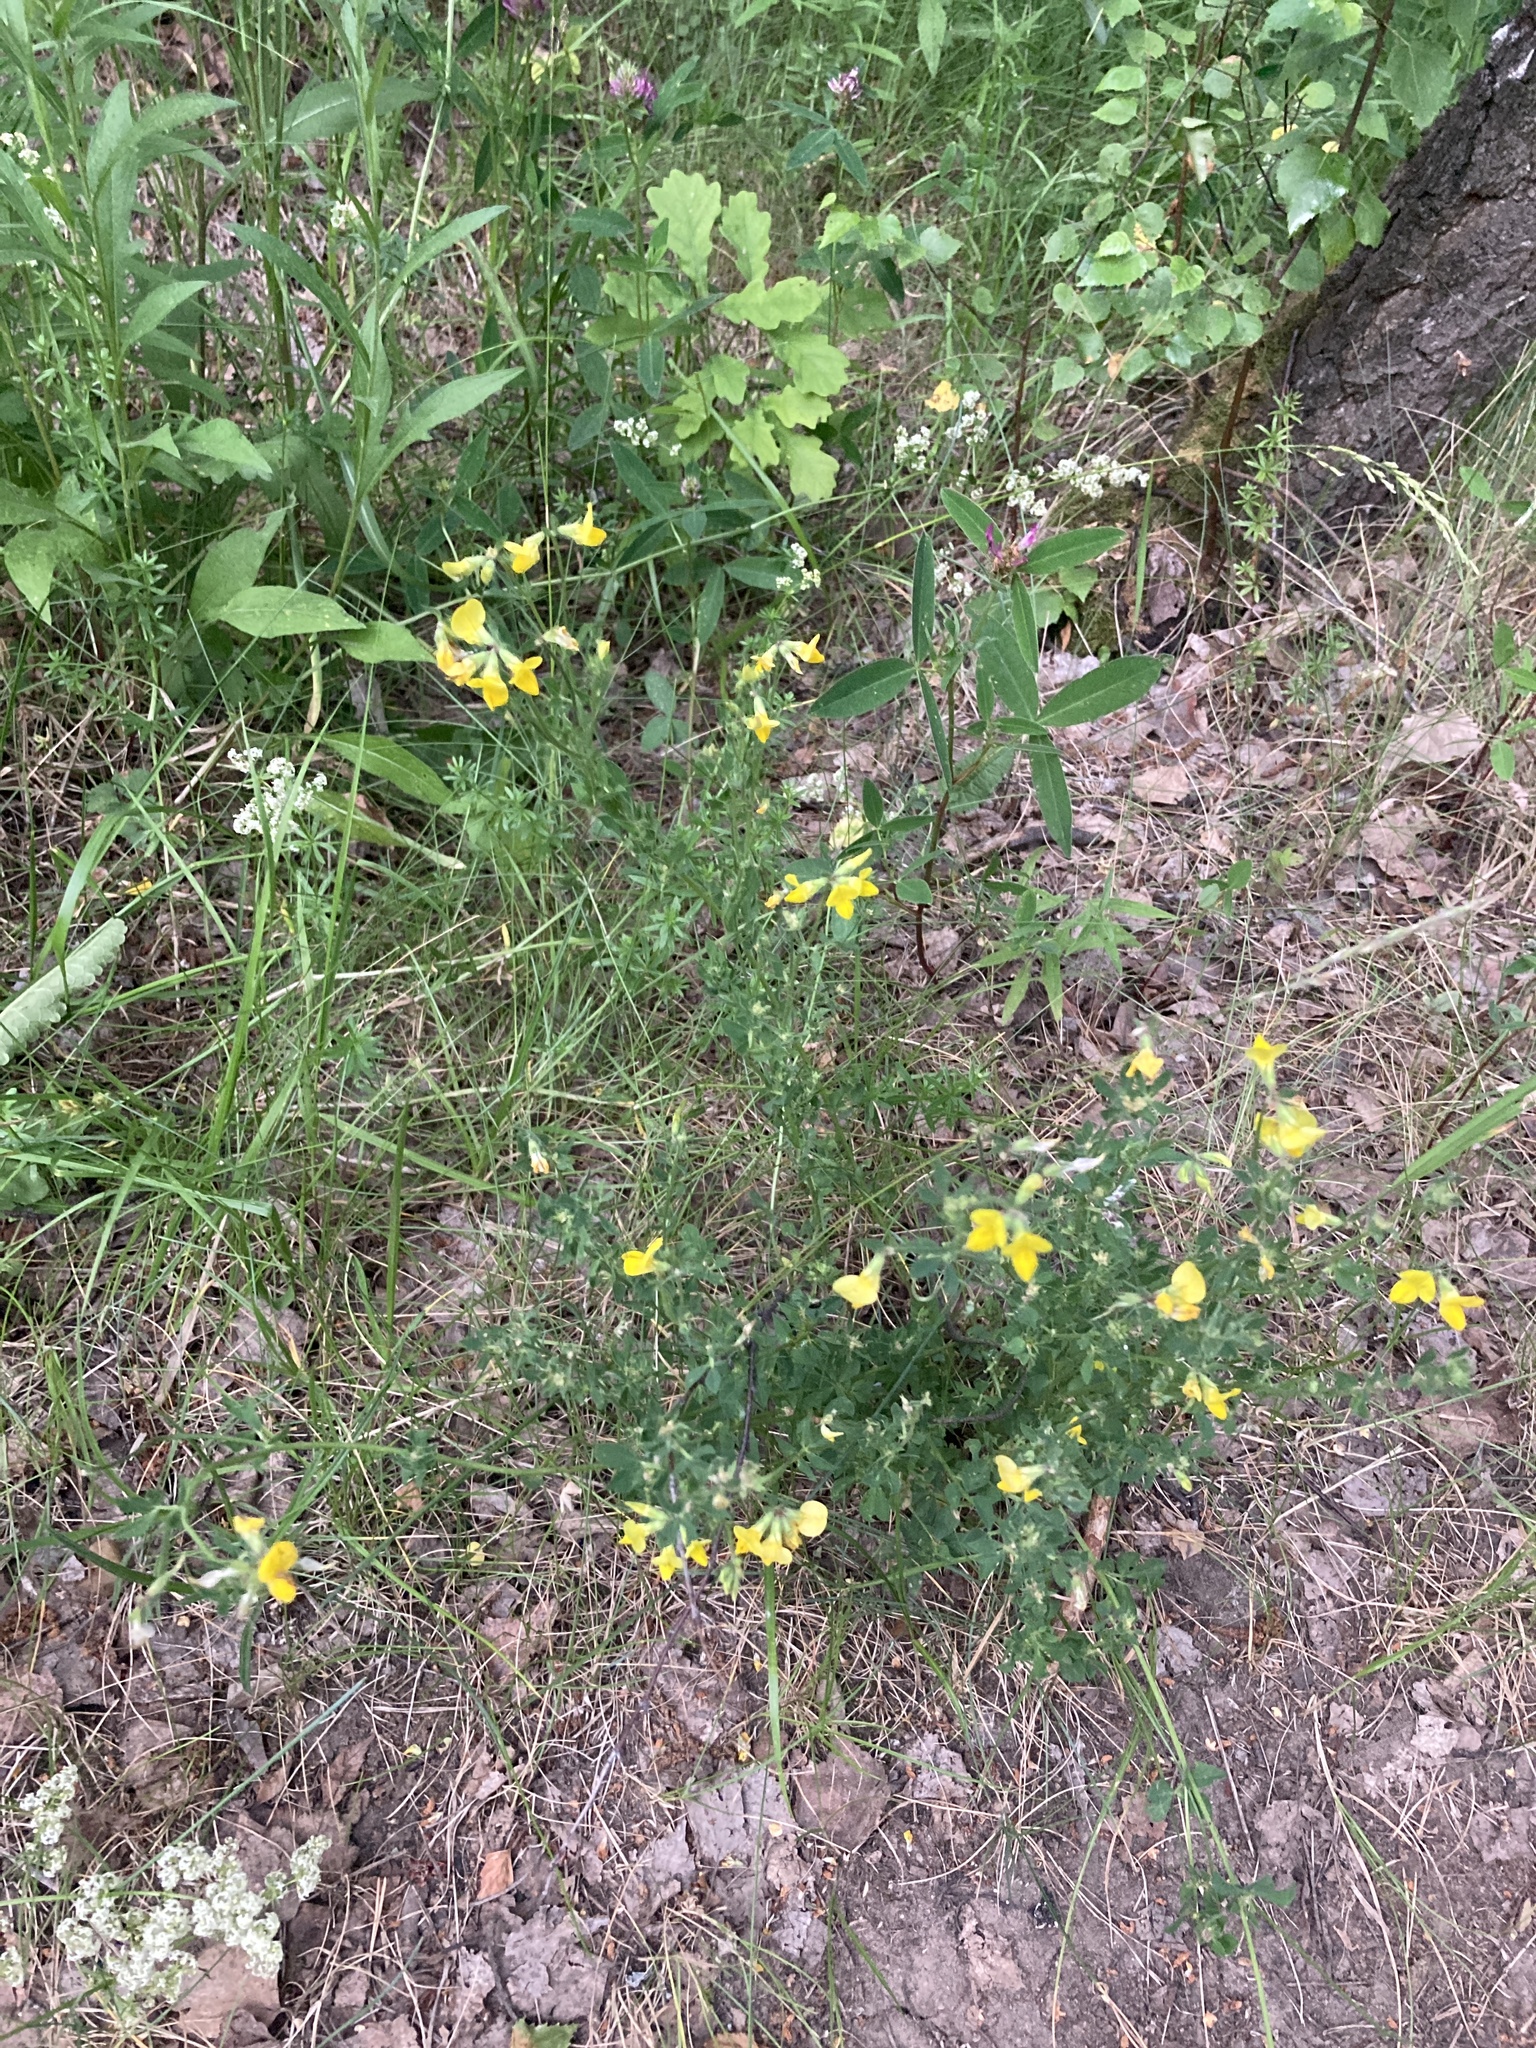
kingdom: Plantae
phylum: Tracheophyta
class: Magnoliopsida
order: Fabales
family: Fabaceae
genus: Lotus
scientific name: Lotus corniculatus
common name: Common bird's-foot-trefoil
